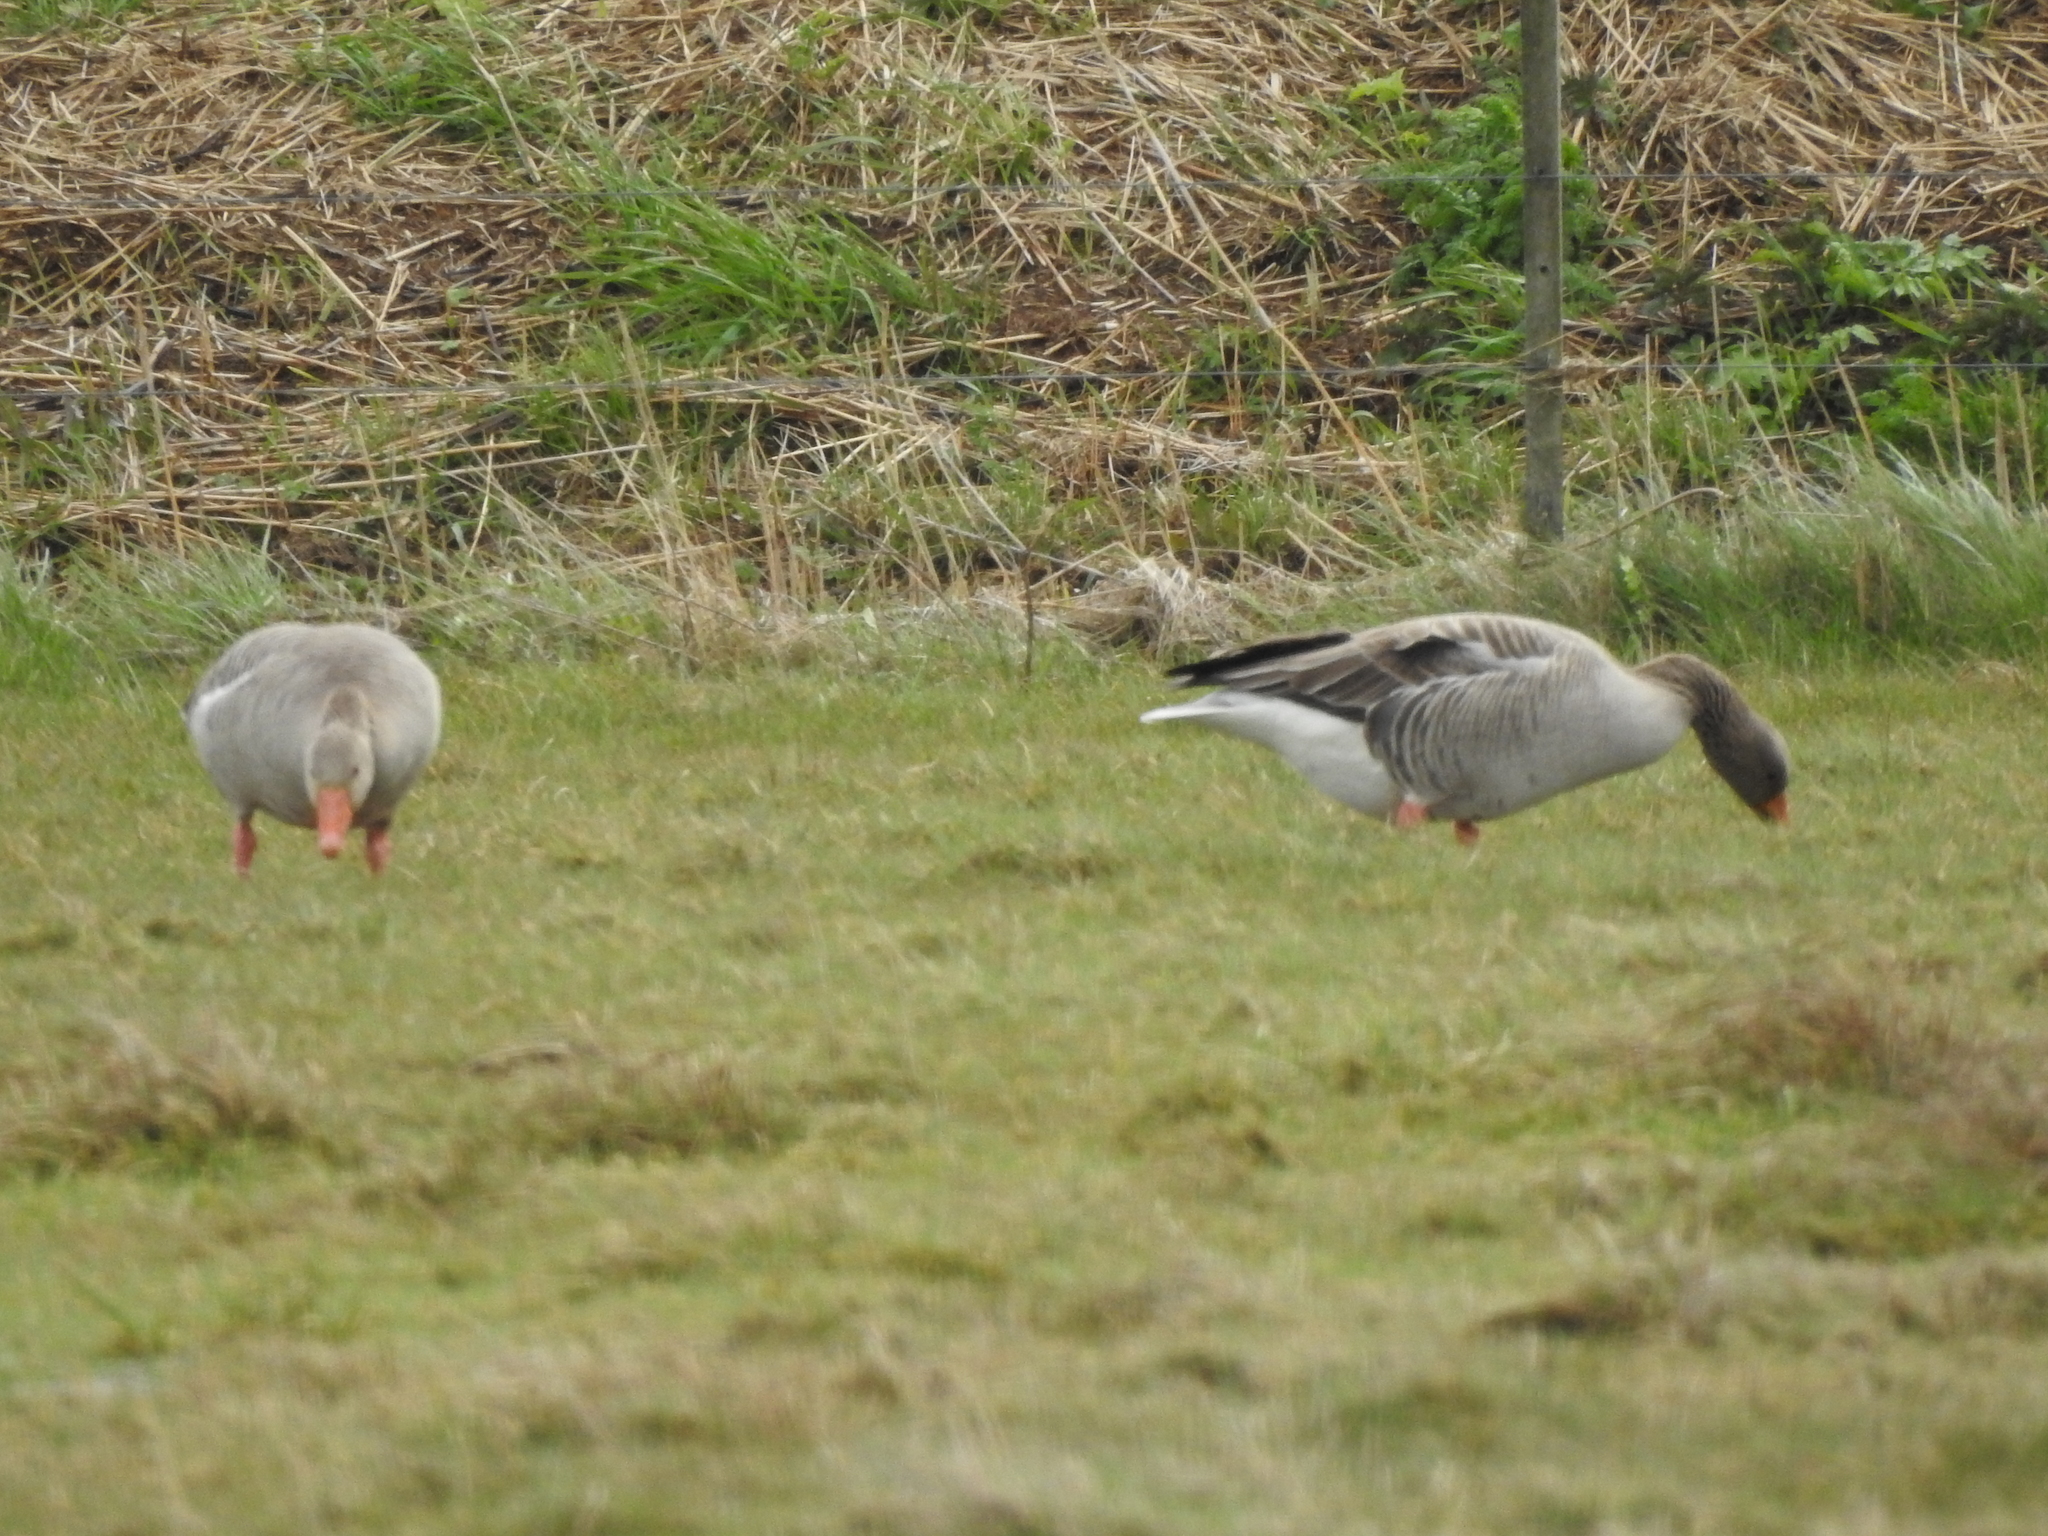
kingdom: Animalia
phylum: Chordata
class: Aves
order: Anseriformes
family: Anatidae
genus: Anser
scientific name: Anser anser
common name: Greylag goose
